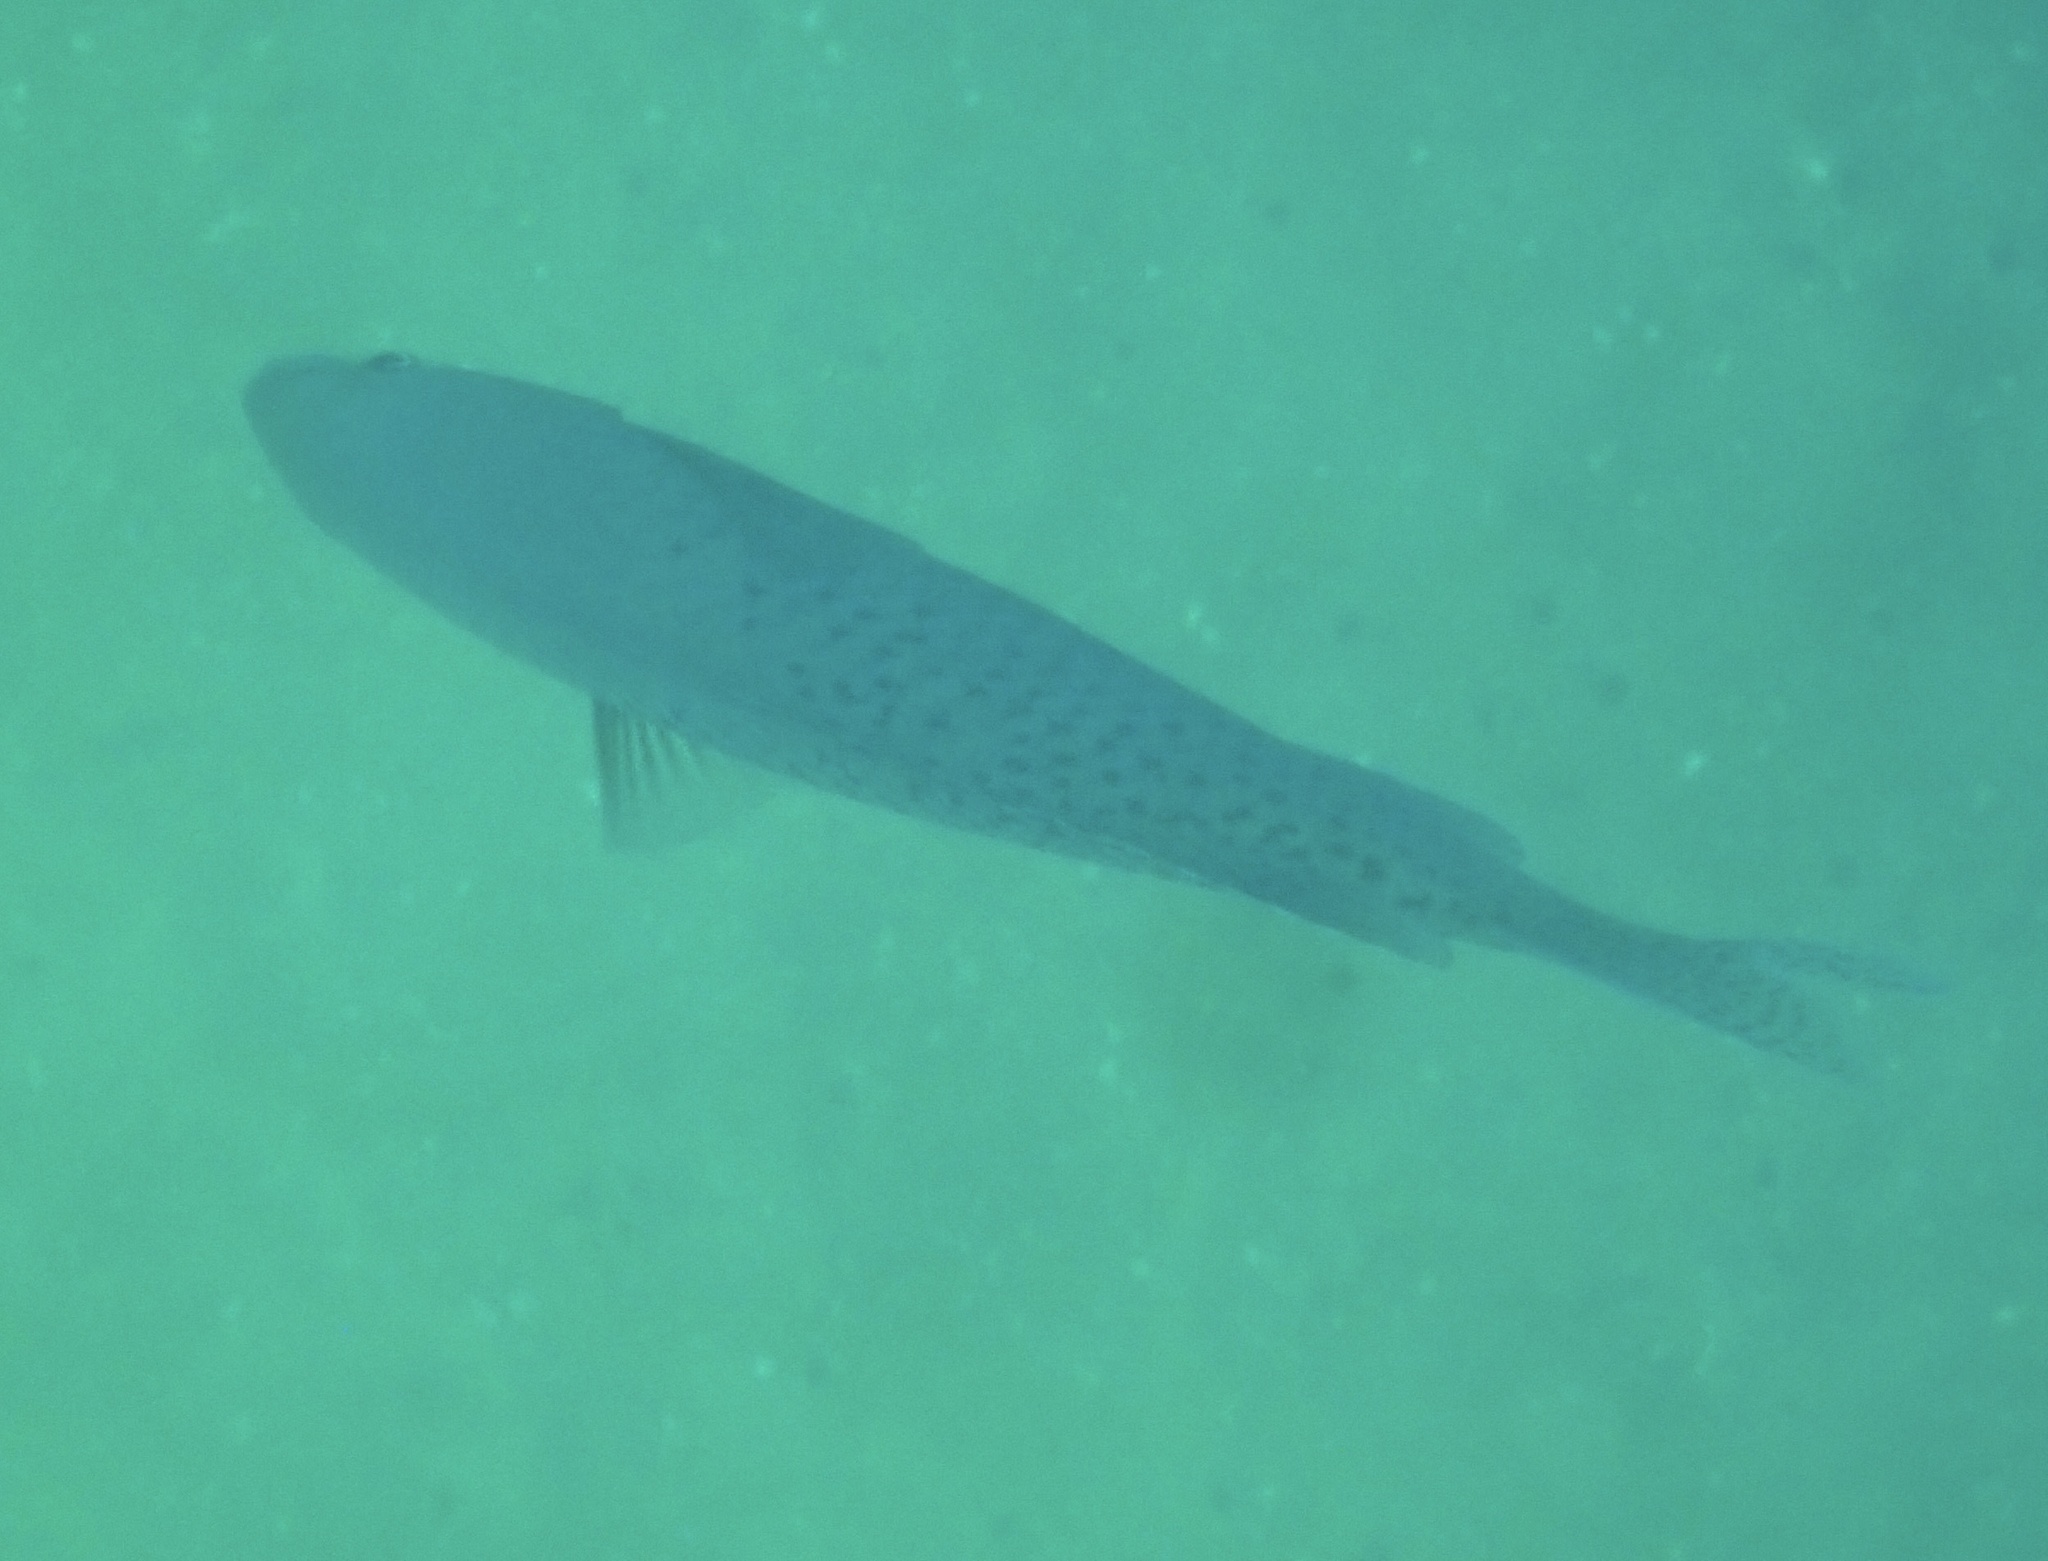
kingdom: Animalia
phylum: Chordata
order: Perciformes
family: Pomacentridae
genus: Chromis
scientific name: Chromis punctipinnis
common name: Blacksmith
